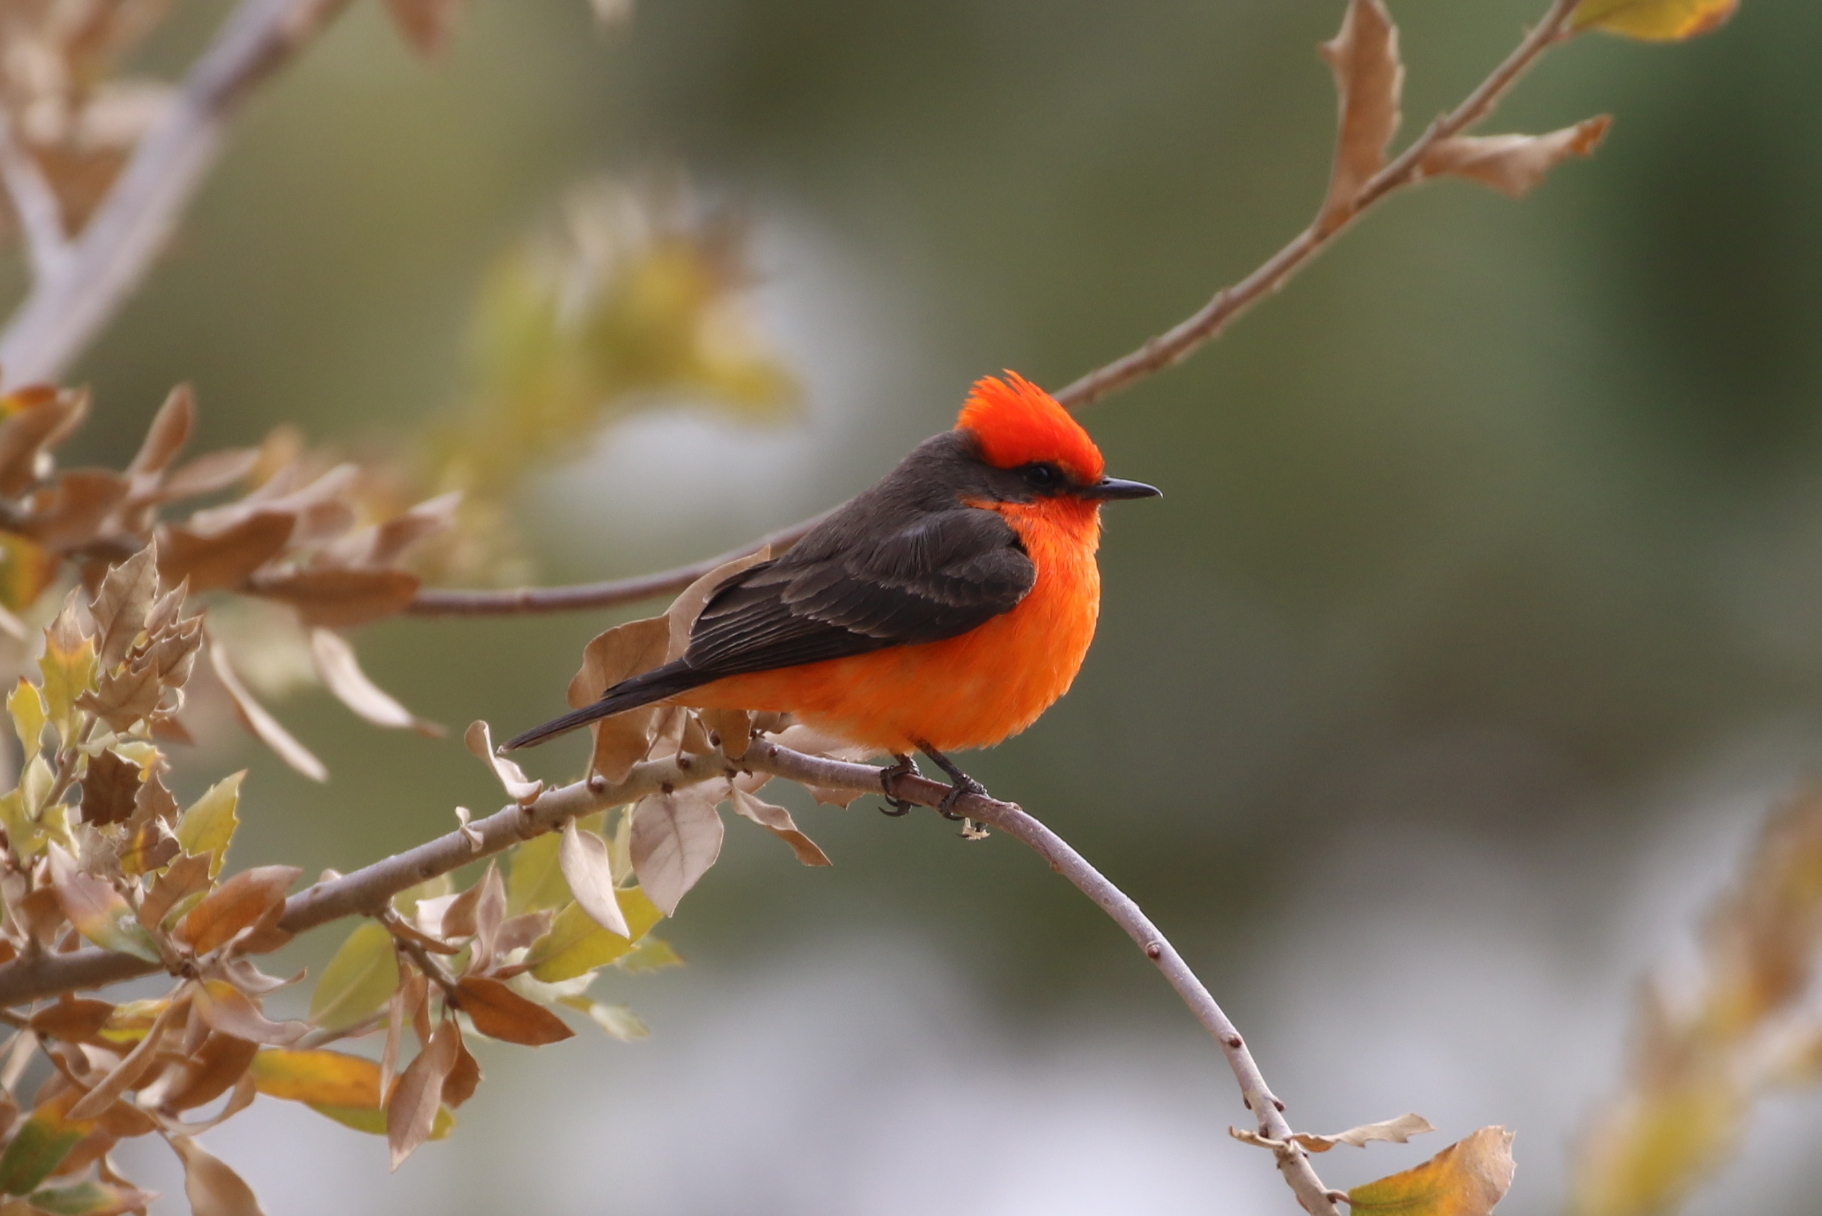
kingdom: Animalia
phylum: Chordata
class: Aves
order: Passeriformes
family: Tyrannidae
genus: Pyrocephalus
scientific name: Pyrocephalus rubinus
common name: Vermilion flycatcher
